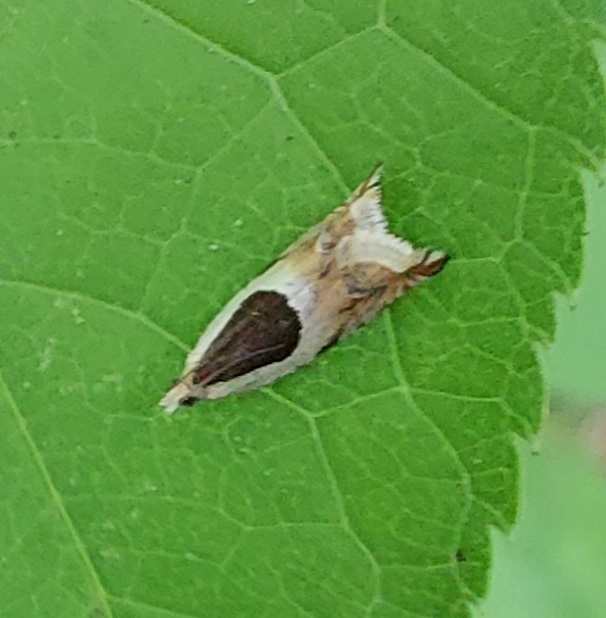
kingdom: Animalia
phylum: Arthropoda
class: Insecta
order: Lepidoptera
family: Tortricidae
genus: Ancylis
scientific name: Ancylis badiana
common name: Common roller
